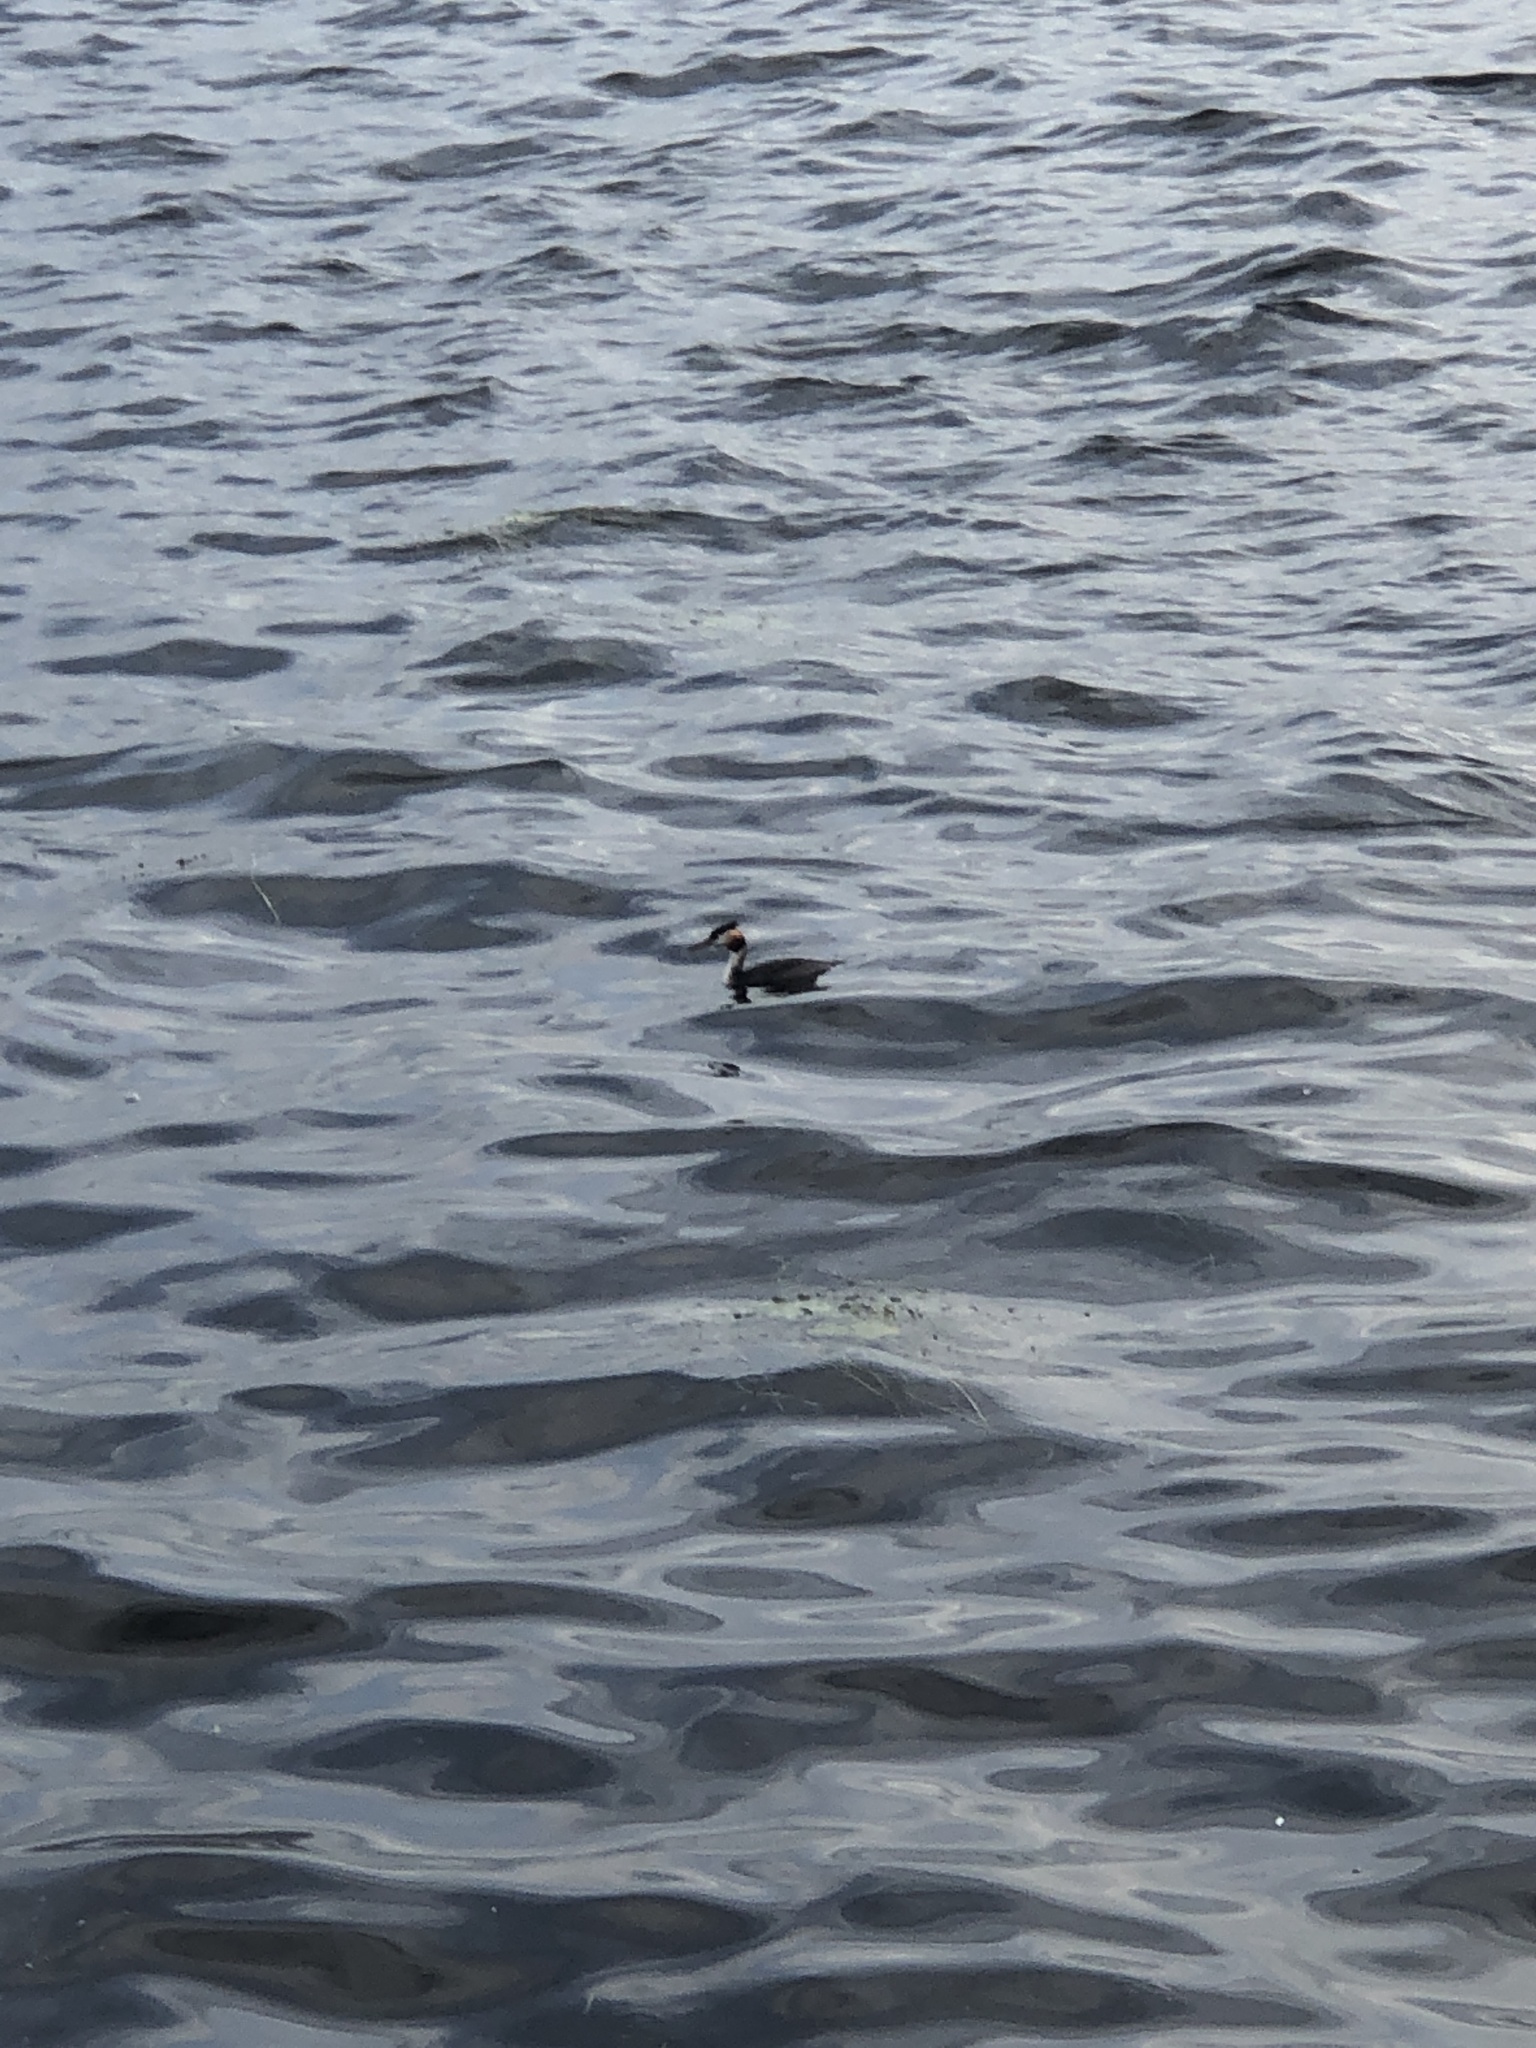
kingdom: Animalia
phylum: Chordata
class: Aves
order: Podicipediformes
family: Podicipedidae
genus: Podiceps
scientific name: Podiceps cristatus
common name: Great crested grebe
